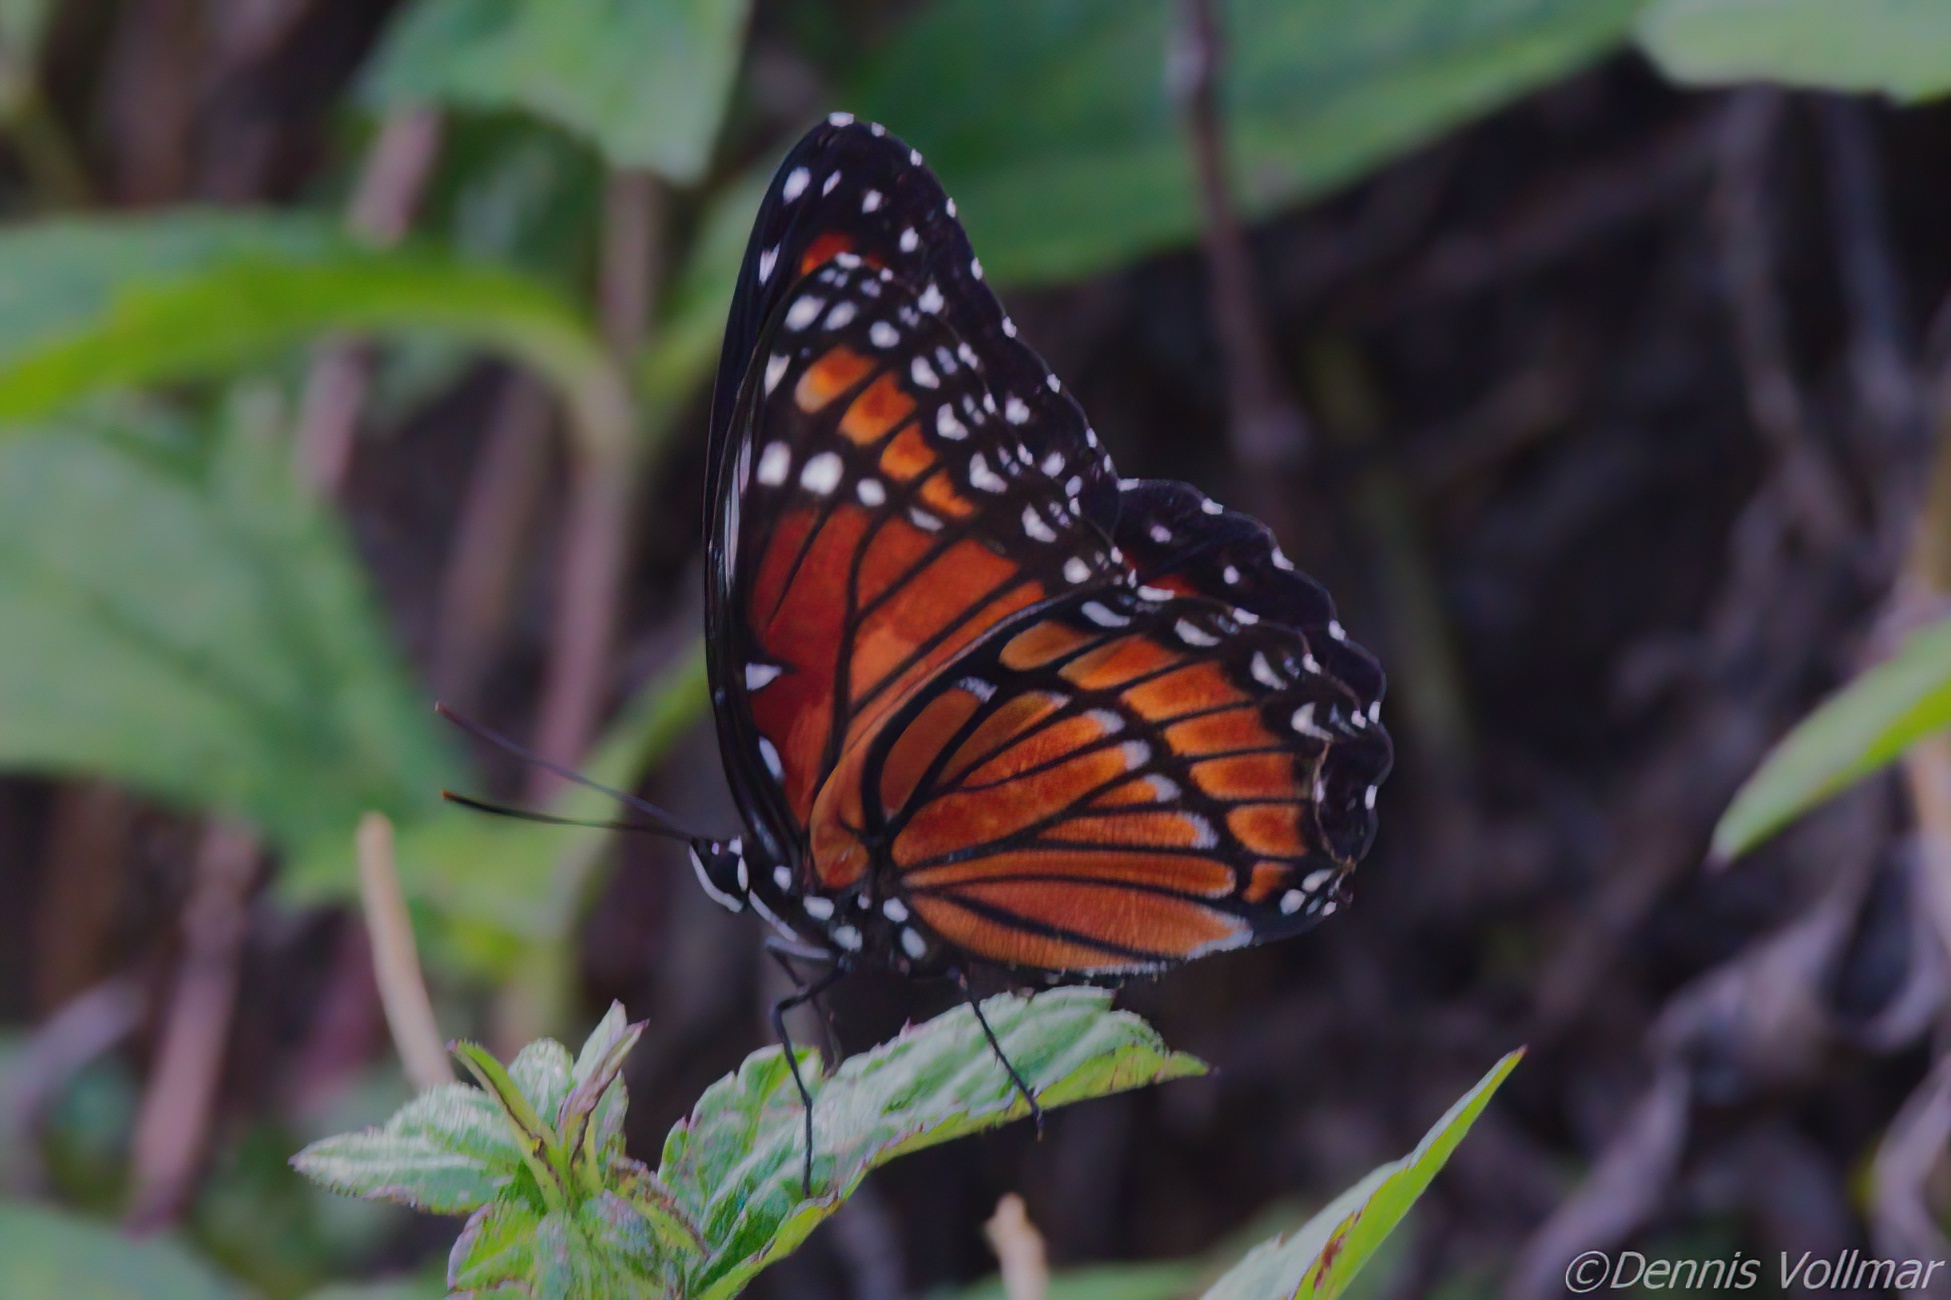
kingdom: Animalia
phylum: Arthropoda
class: Insecta
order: Lepidoptera
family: Nymphalidae
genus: Limenitis
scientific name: Limenitis archippus
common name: Viceroy
